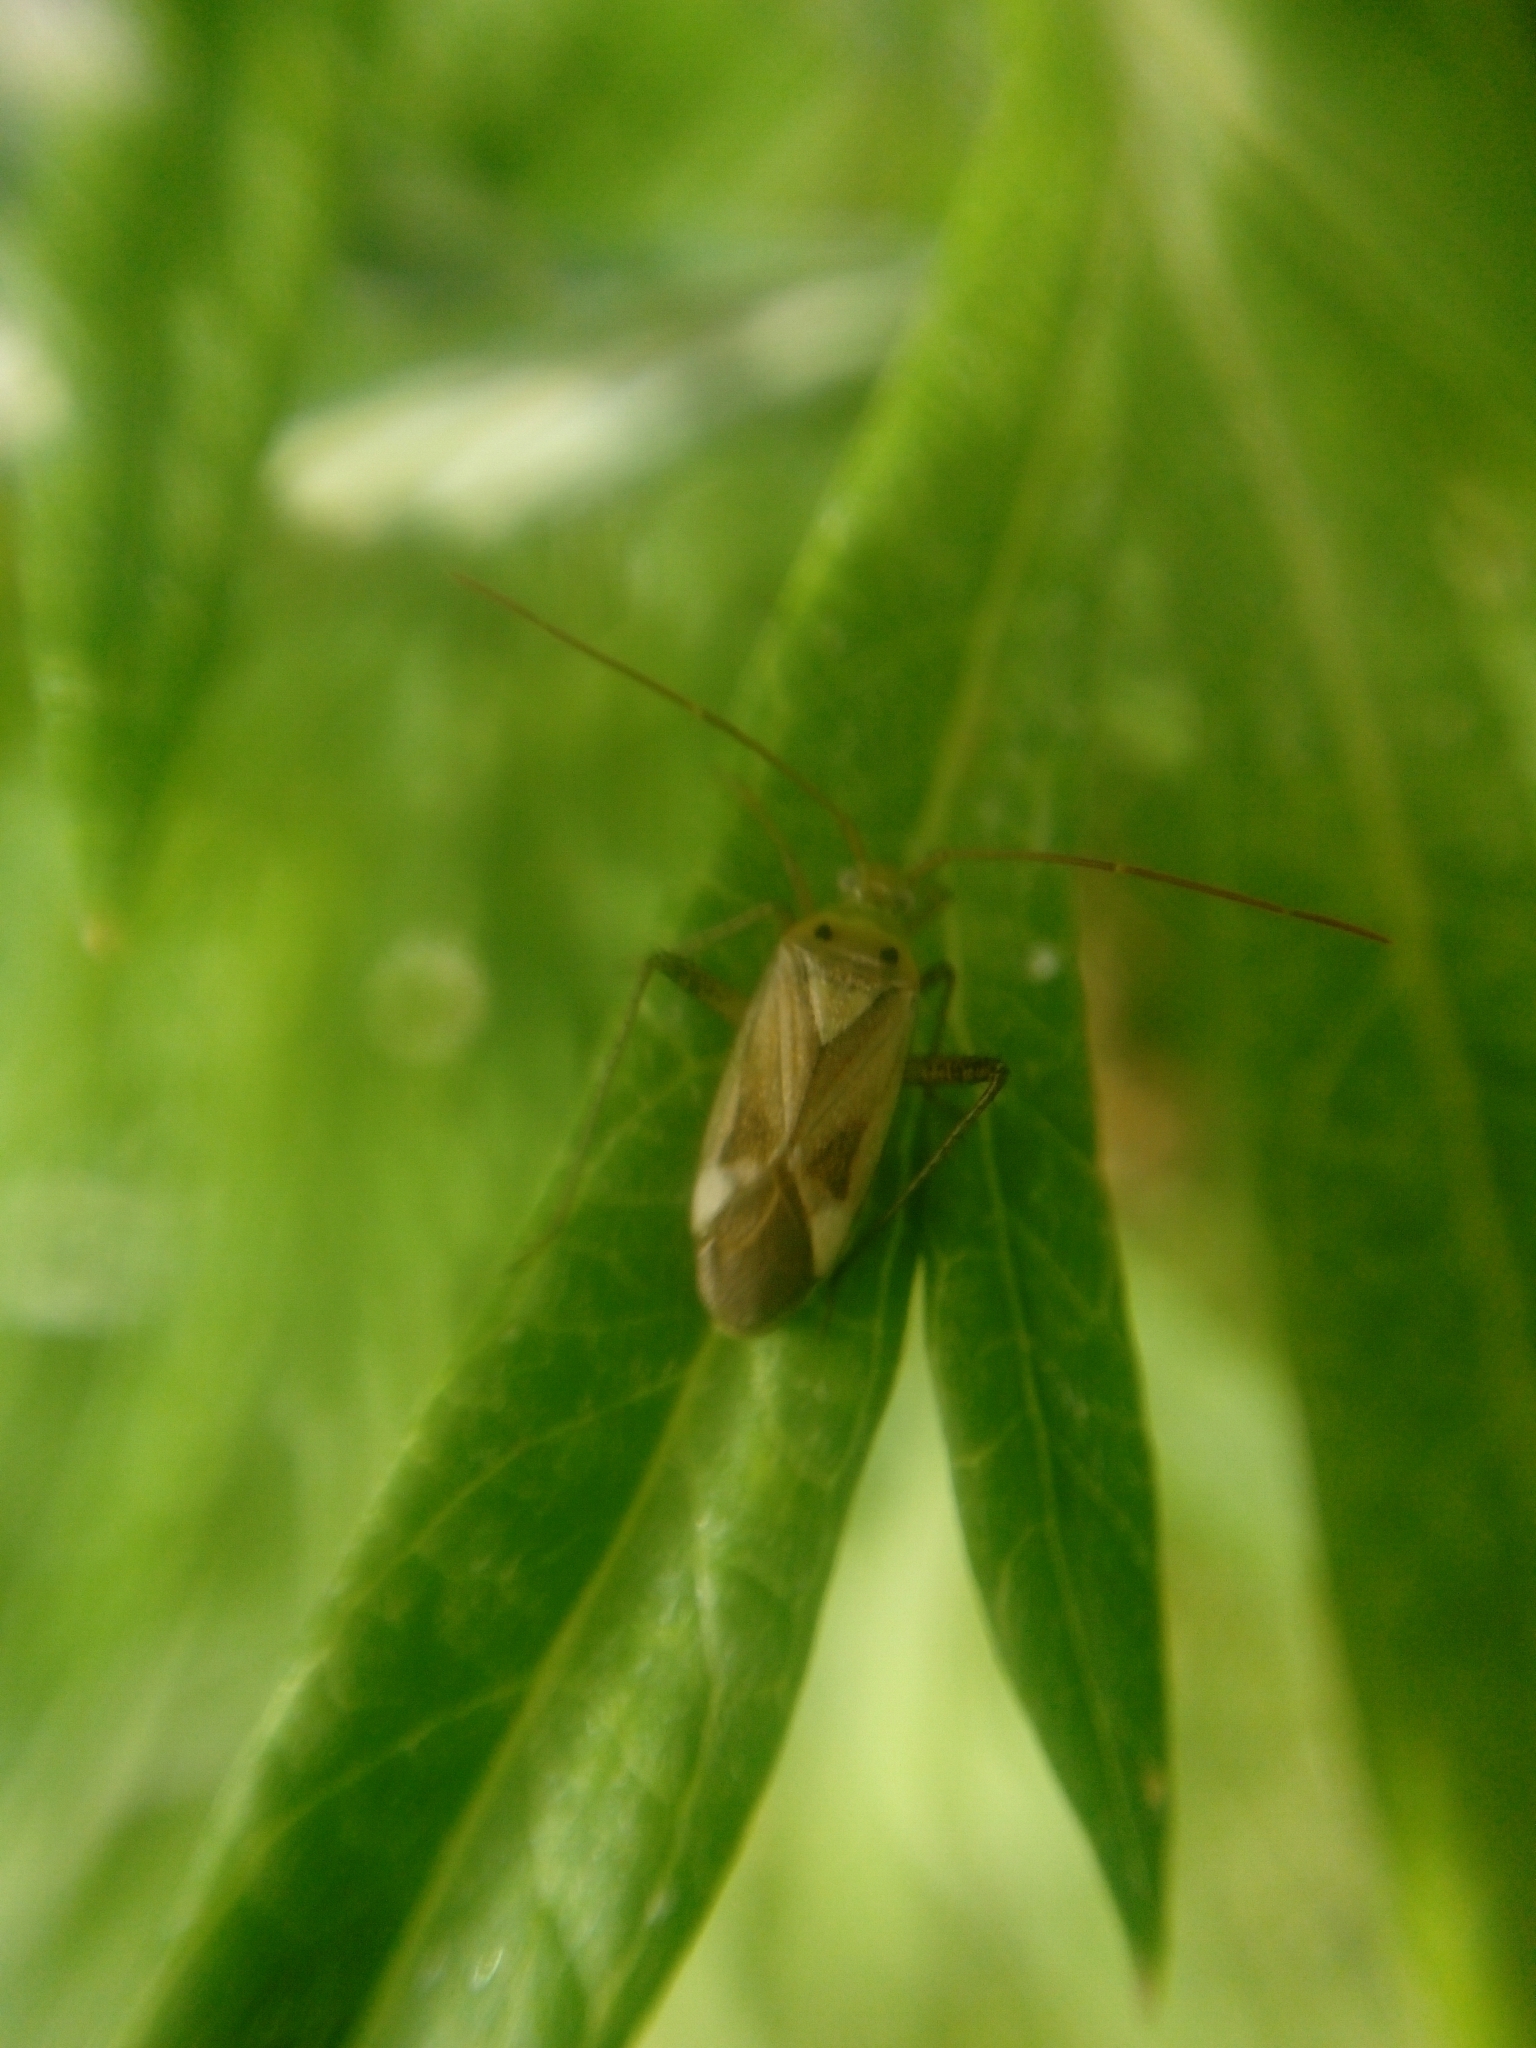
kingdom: Animalia
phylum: Arthropoda
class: Insecta
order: Hemiptera
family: Miridae
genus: Adelphocoris
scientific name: Adelphocoris lineolatus
